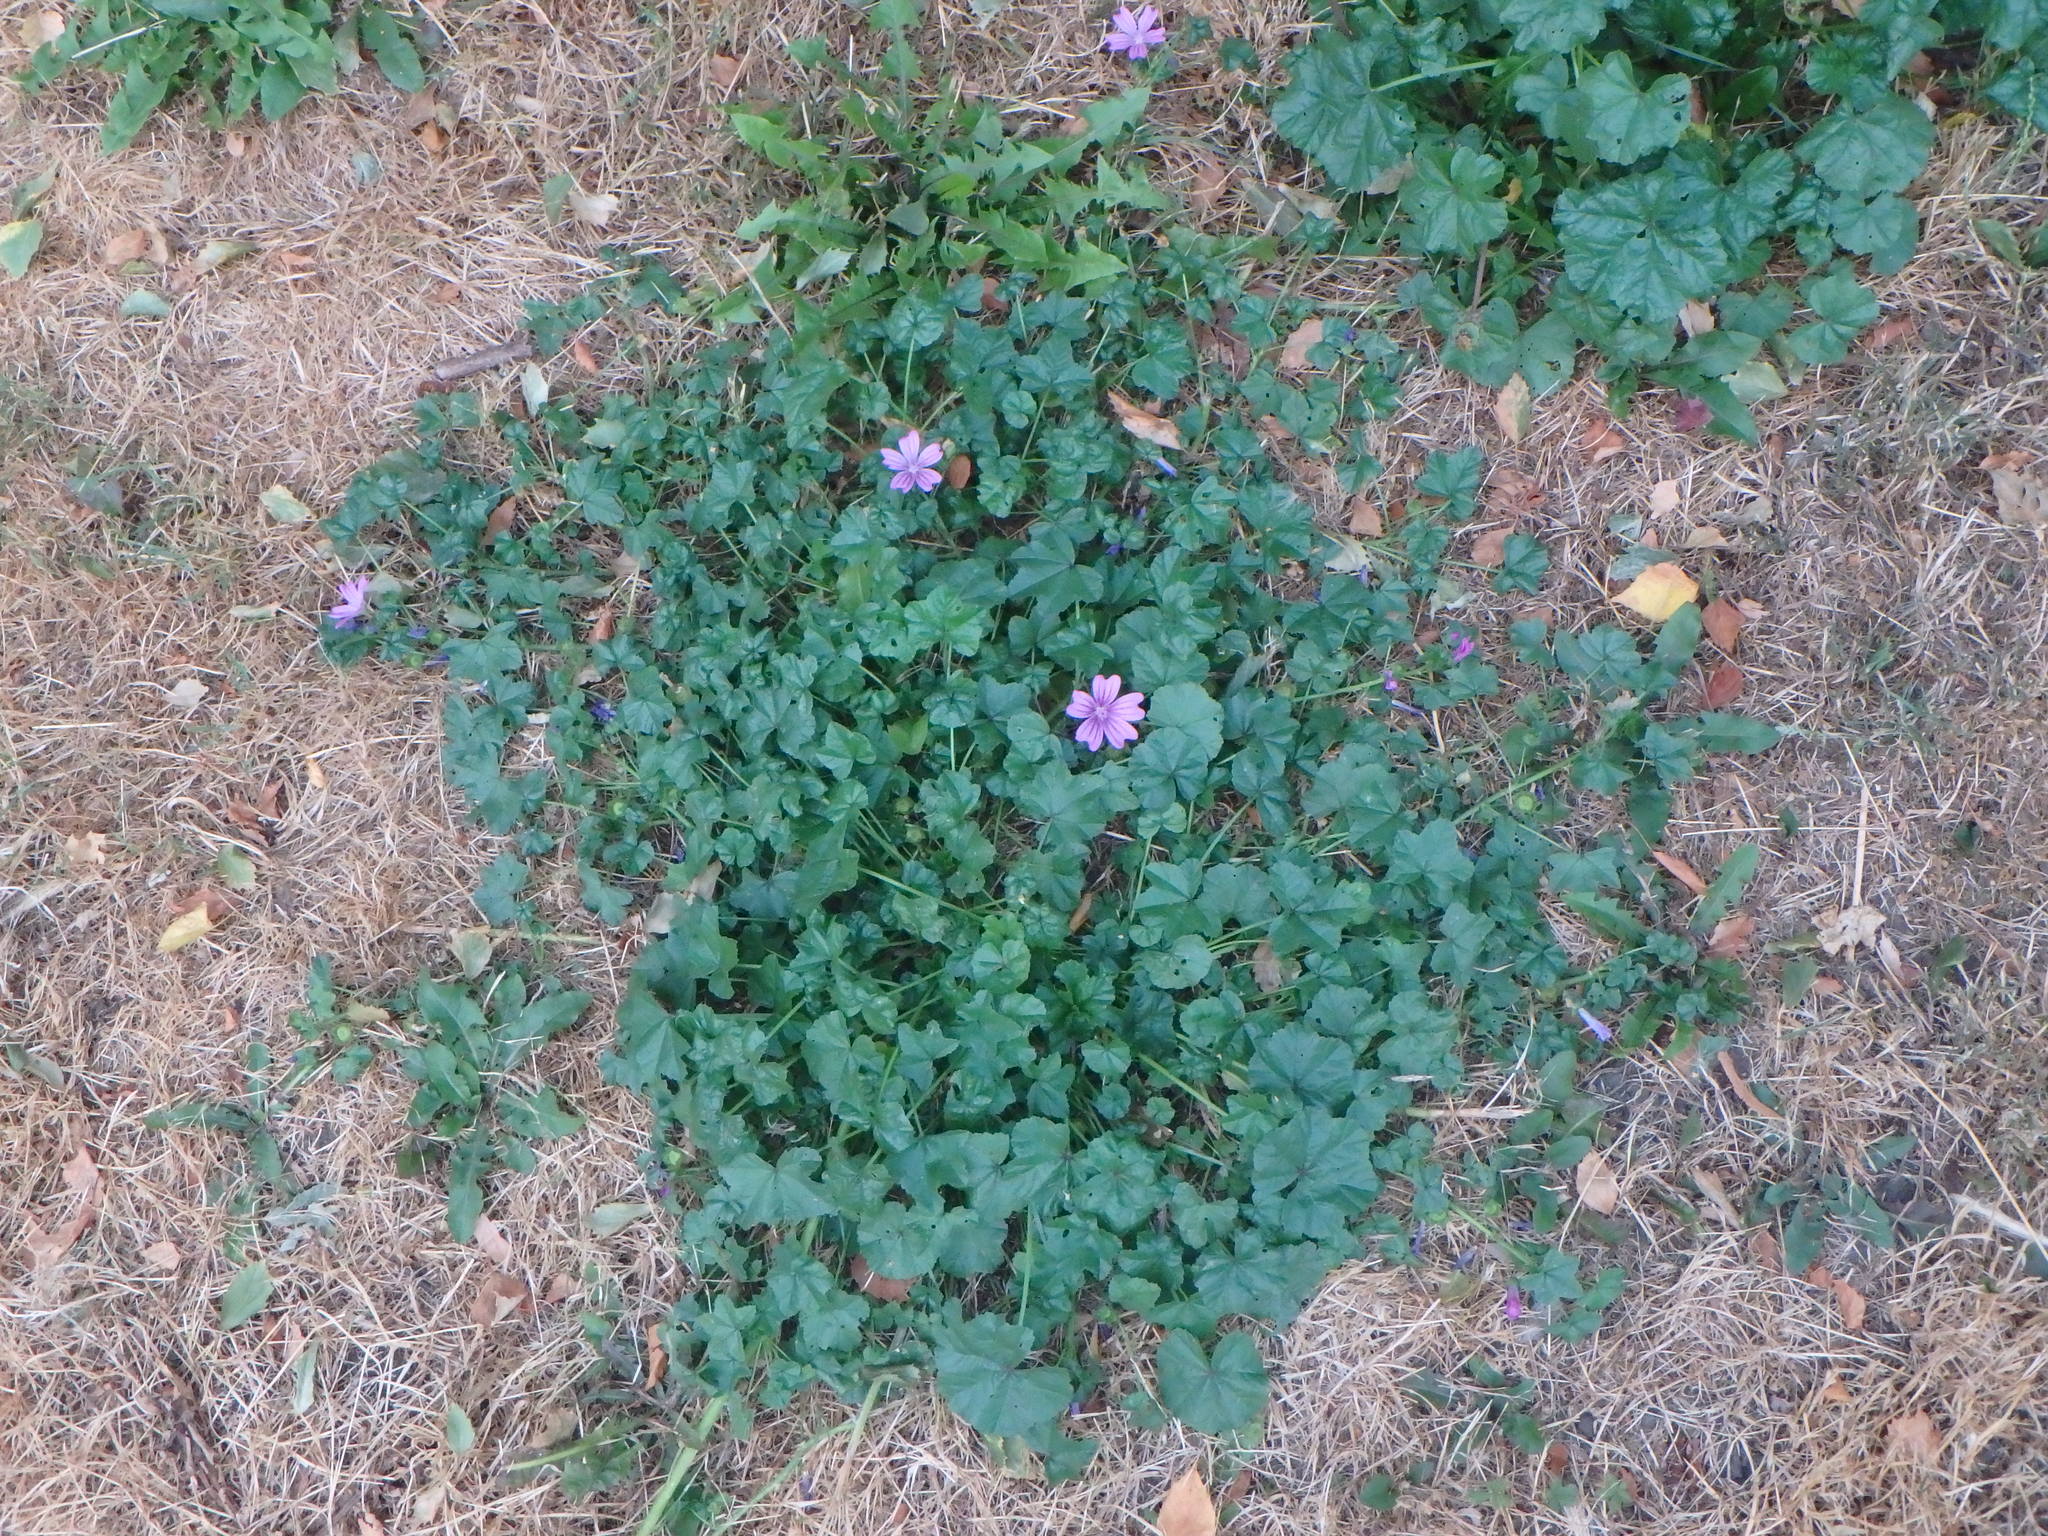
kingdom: Plantae
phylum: Tracheophyta
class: Magnoliopsida
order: Malvales
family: Malvaceae
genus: Malva
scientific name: Malva sylvestris
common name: Common mallow
